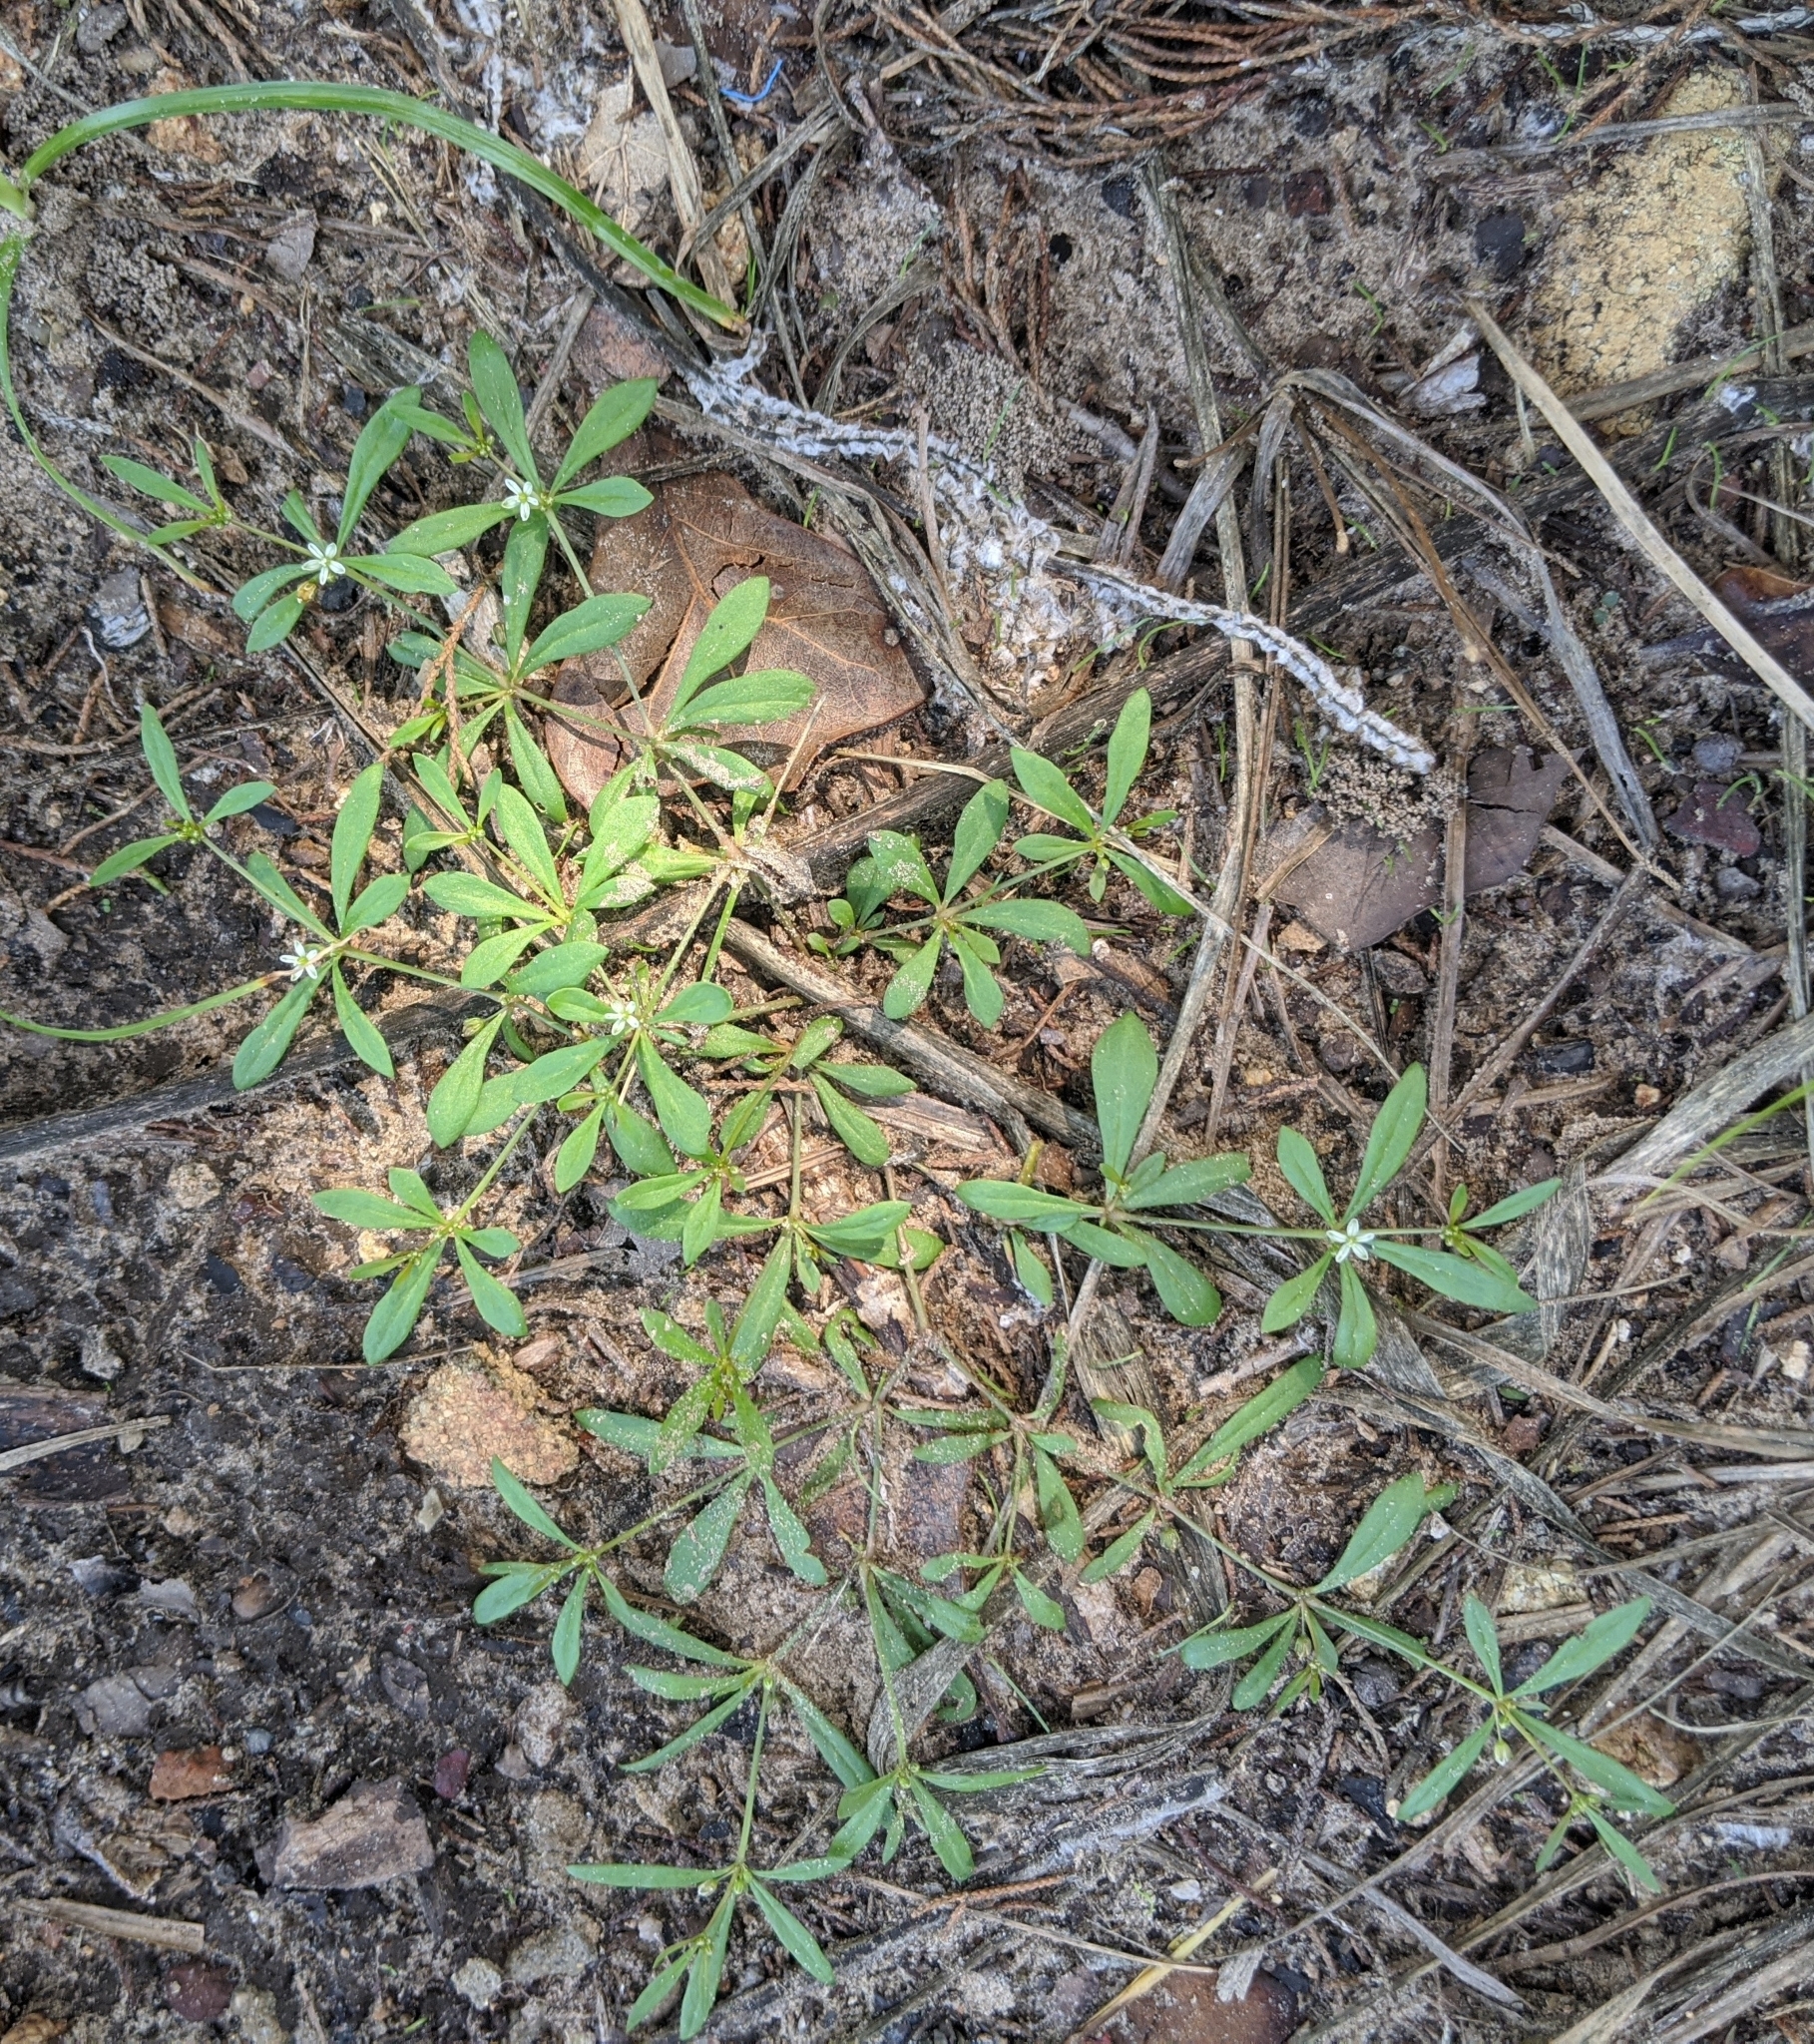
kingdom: Plantae
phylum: Tracheophyta
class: Magnoliopsida
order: Caryophyllales
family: Molluginaceae
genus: Mollugo
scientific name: Mollugo verticillata
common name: Green carpetweed
